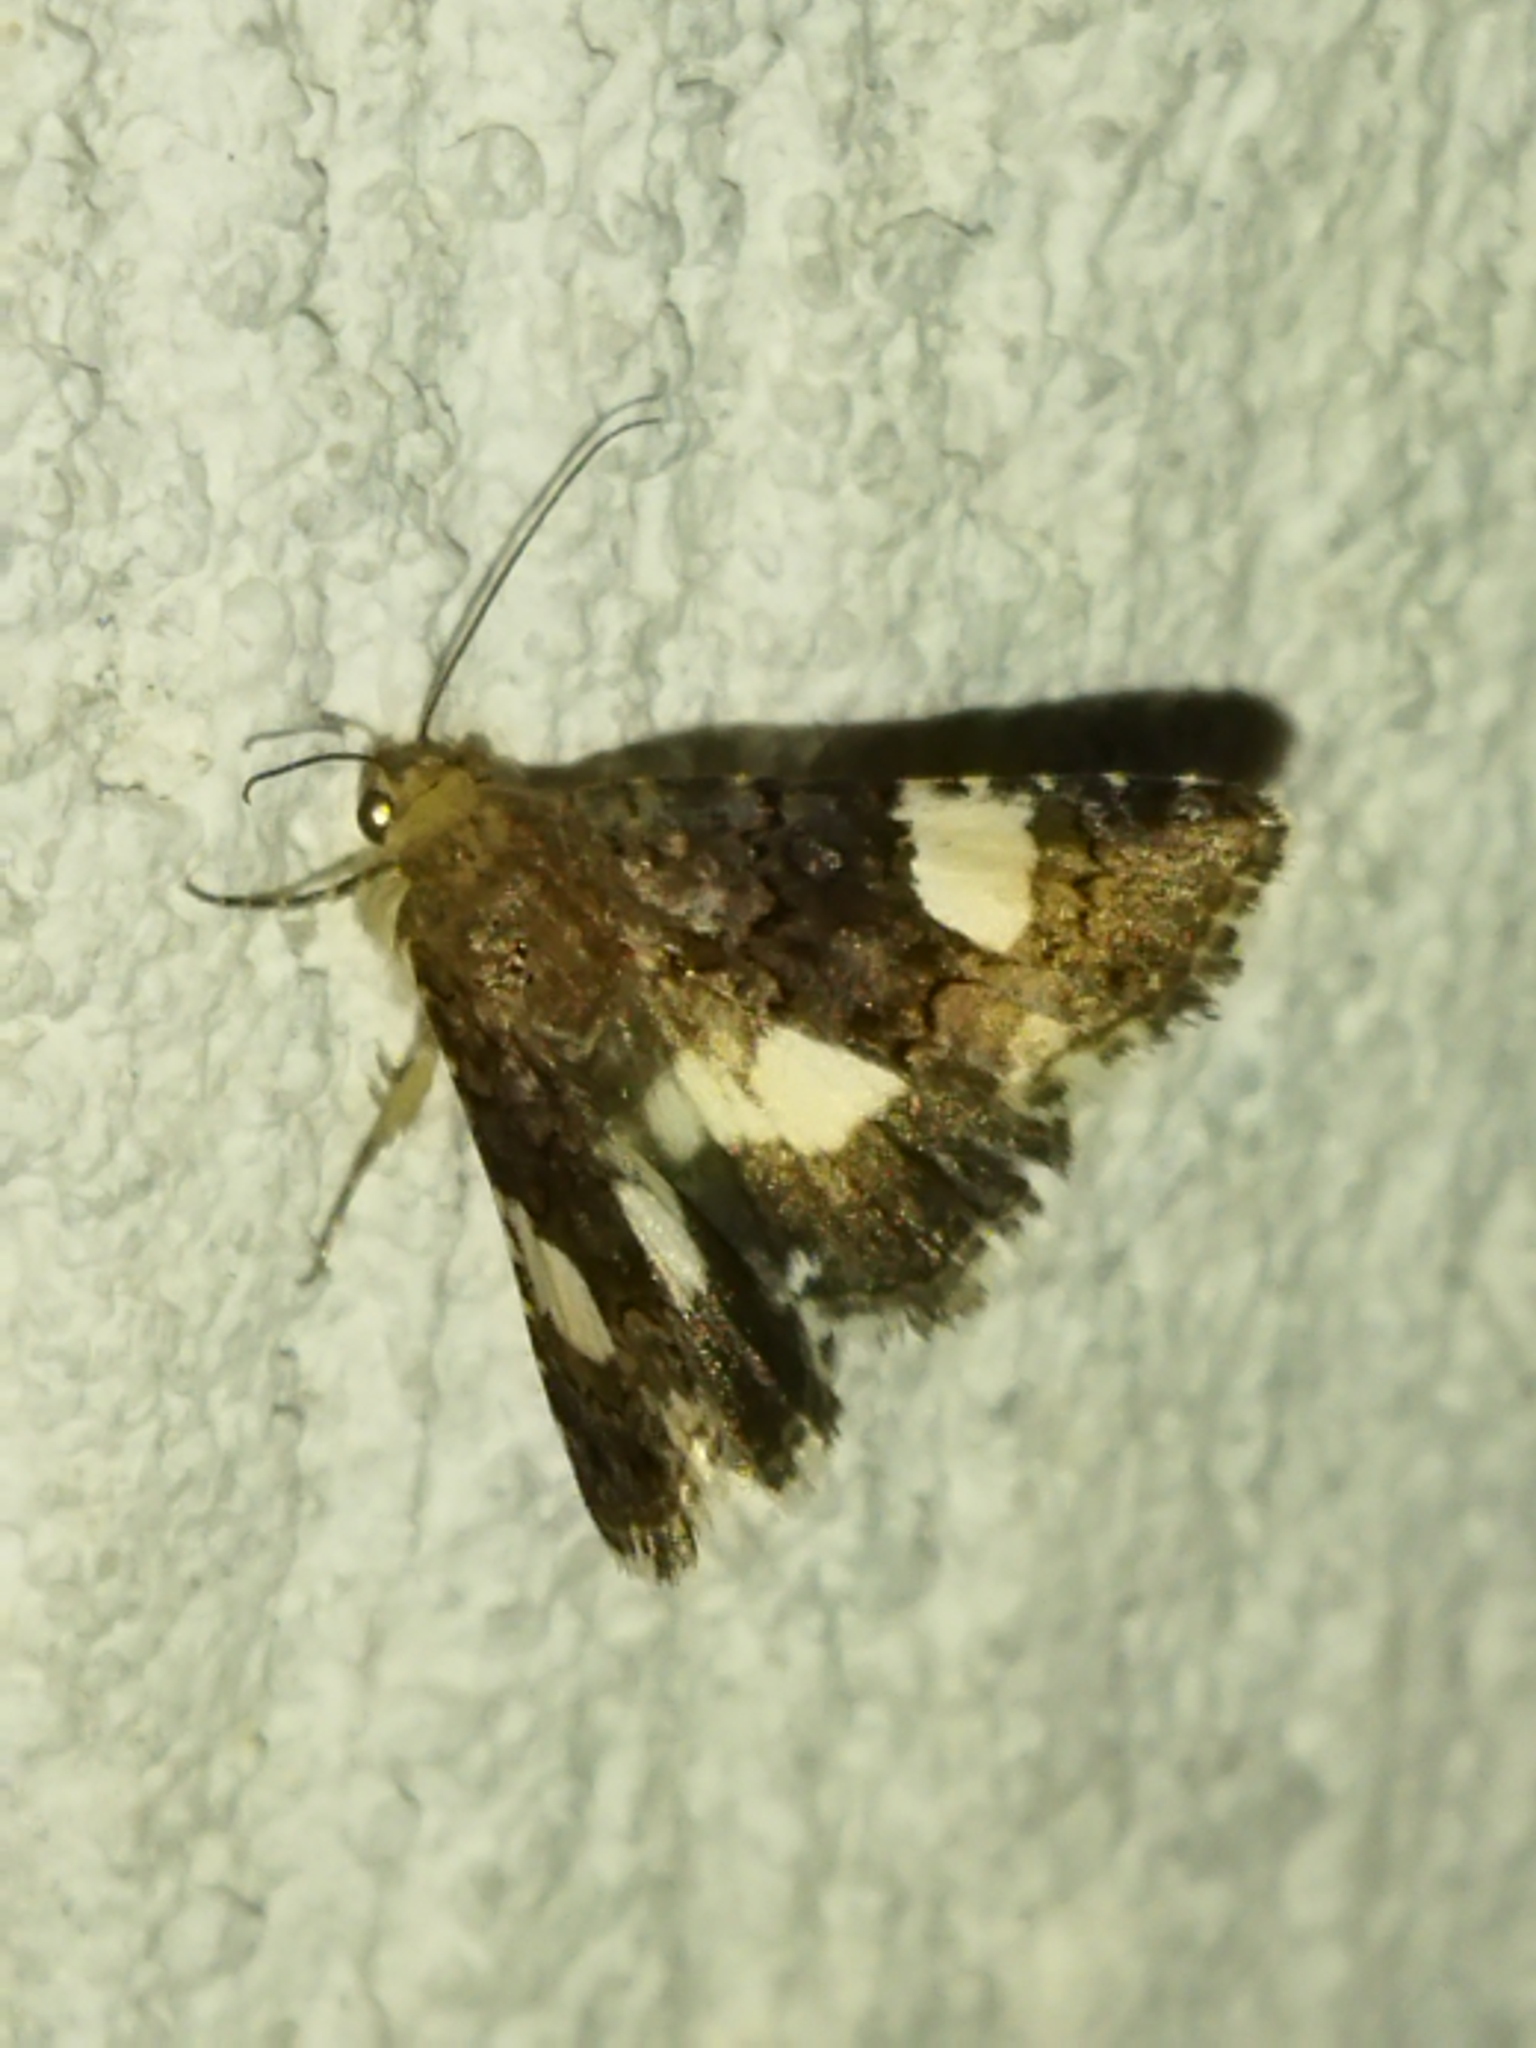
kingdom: Animalia
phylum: Arthropoda
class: Insecta
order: Lepidoptera
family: Erebidae
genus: Tyta
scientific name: Tyta luctuosa
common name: Four-spotted
